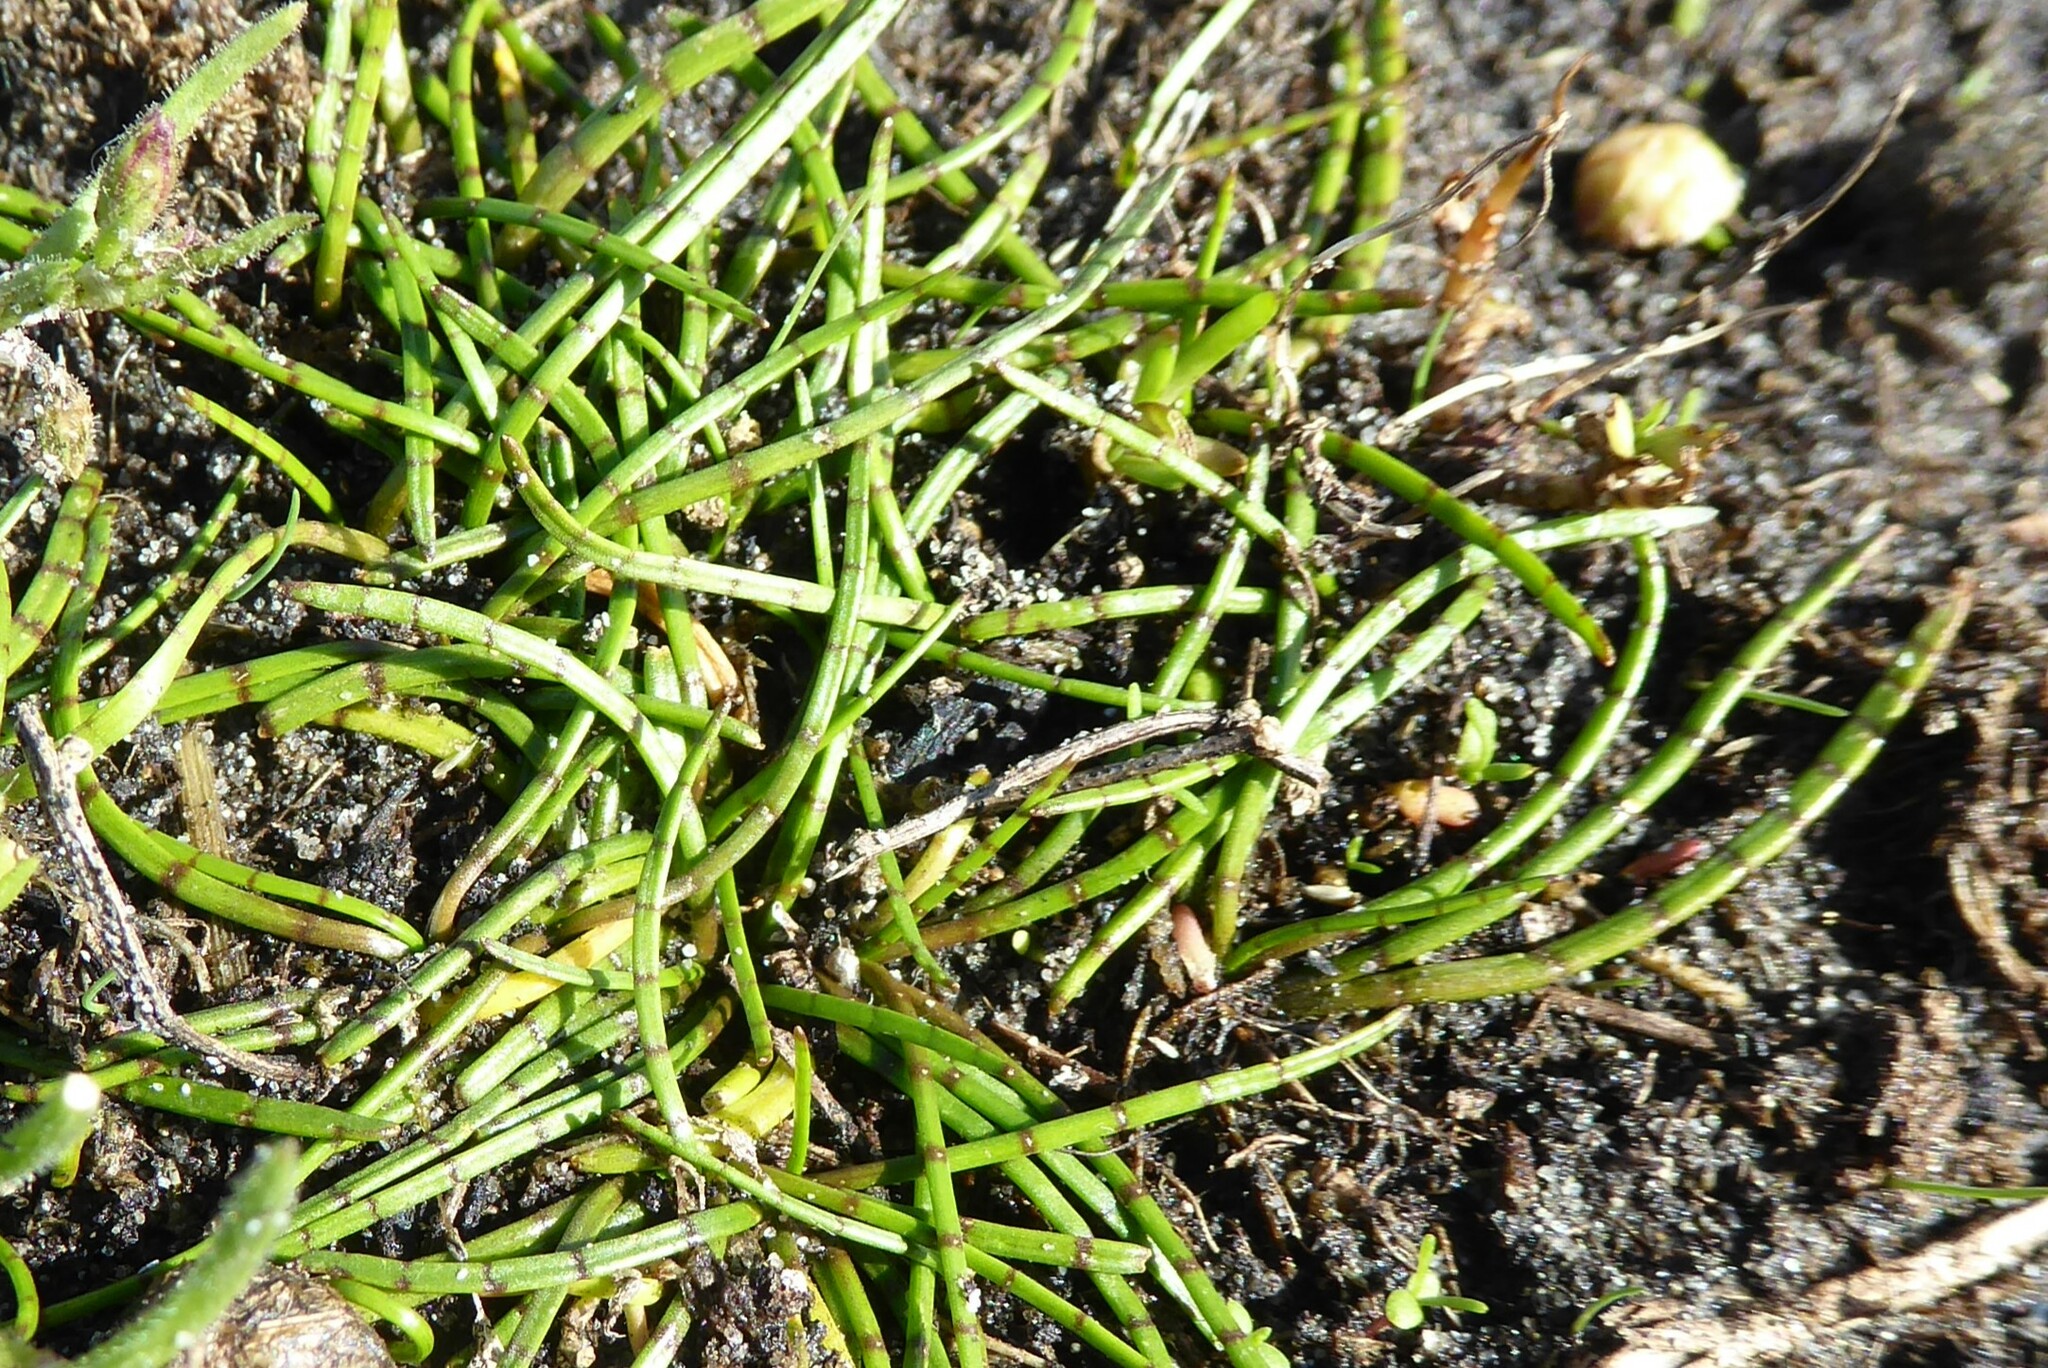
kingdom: Plantae
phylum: Tracheophyta
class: Magnoliopsida
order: Apiales
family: Apiaceae
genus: Lilaeopsis
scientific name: Lilaeopsis novae-zelandiae
